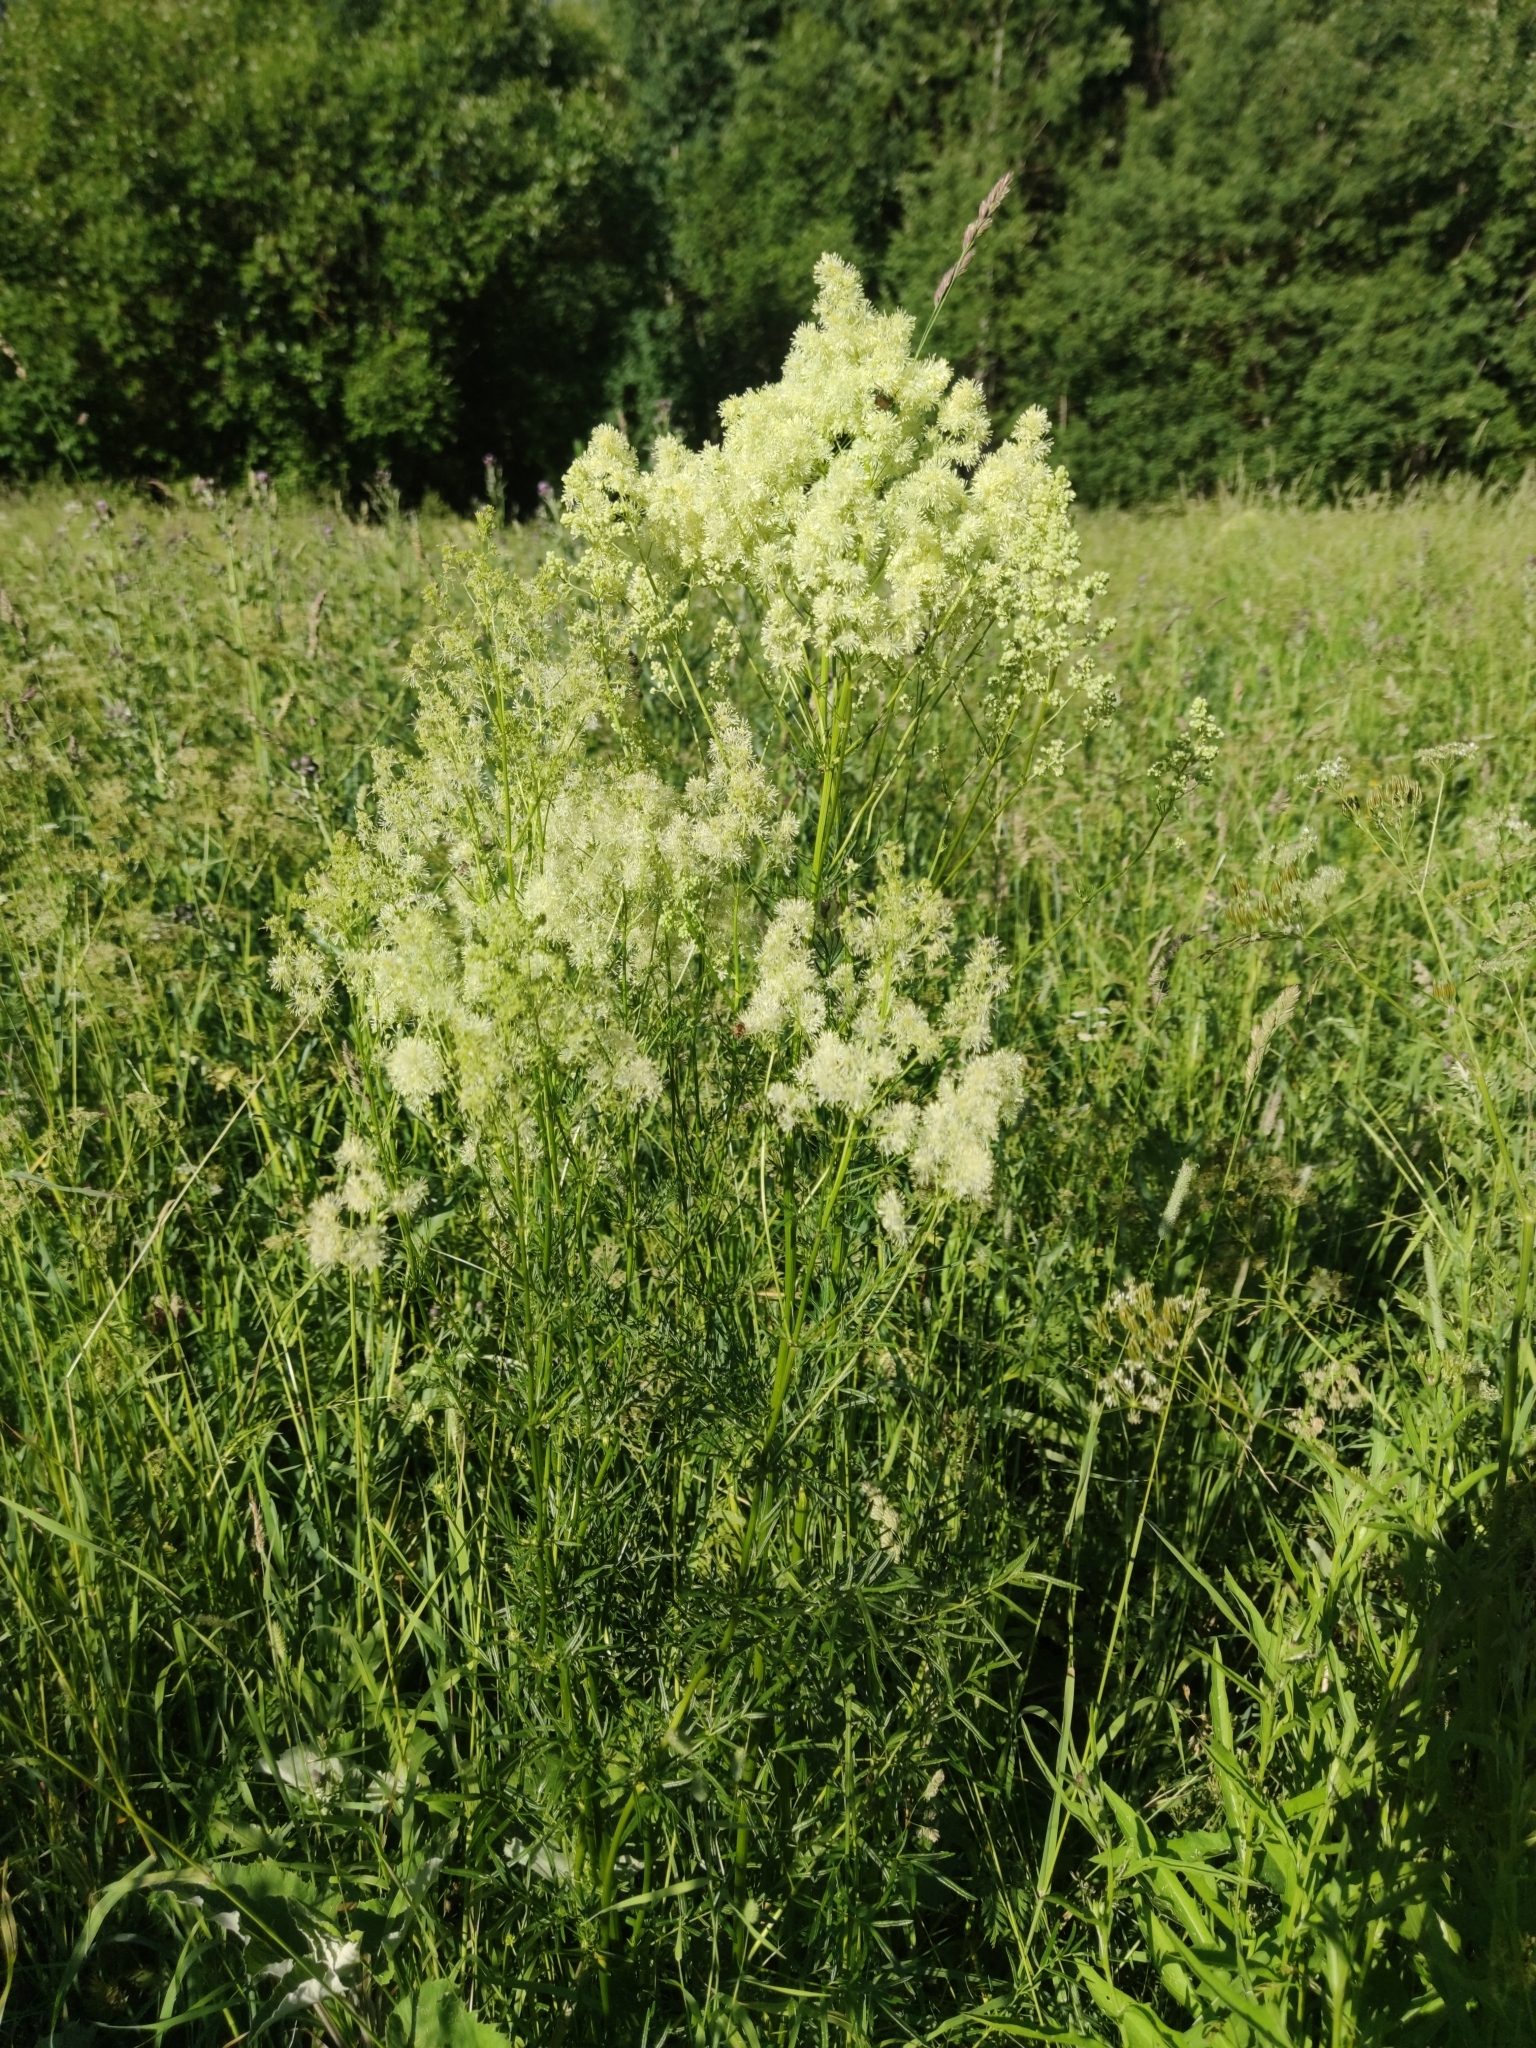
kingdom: Plantae
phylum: Tracheophyta
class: Magnoliopsida
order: Ranunculales
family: Ranunculaceae
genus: Thalictrum
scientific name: Thalictrum lucidum
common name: Shining meadow-rue
